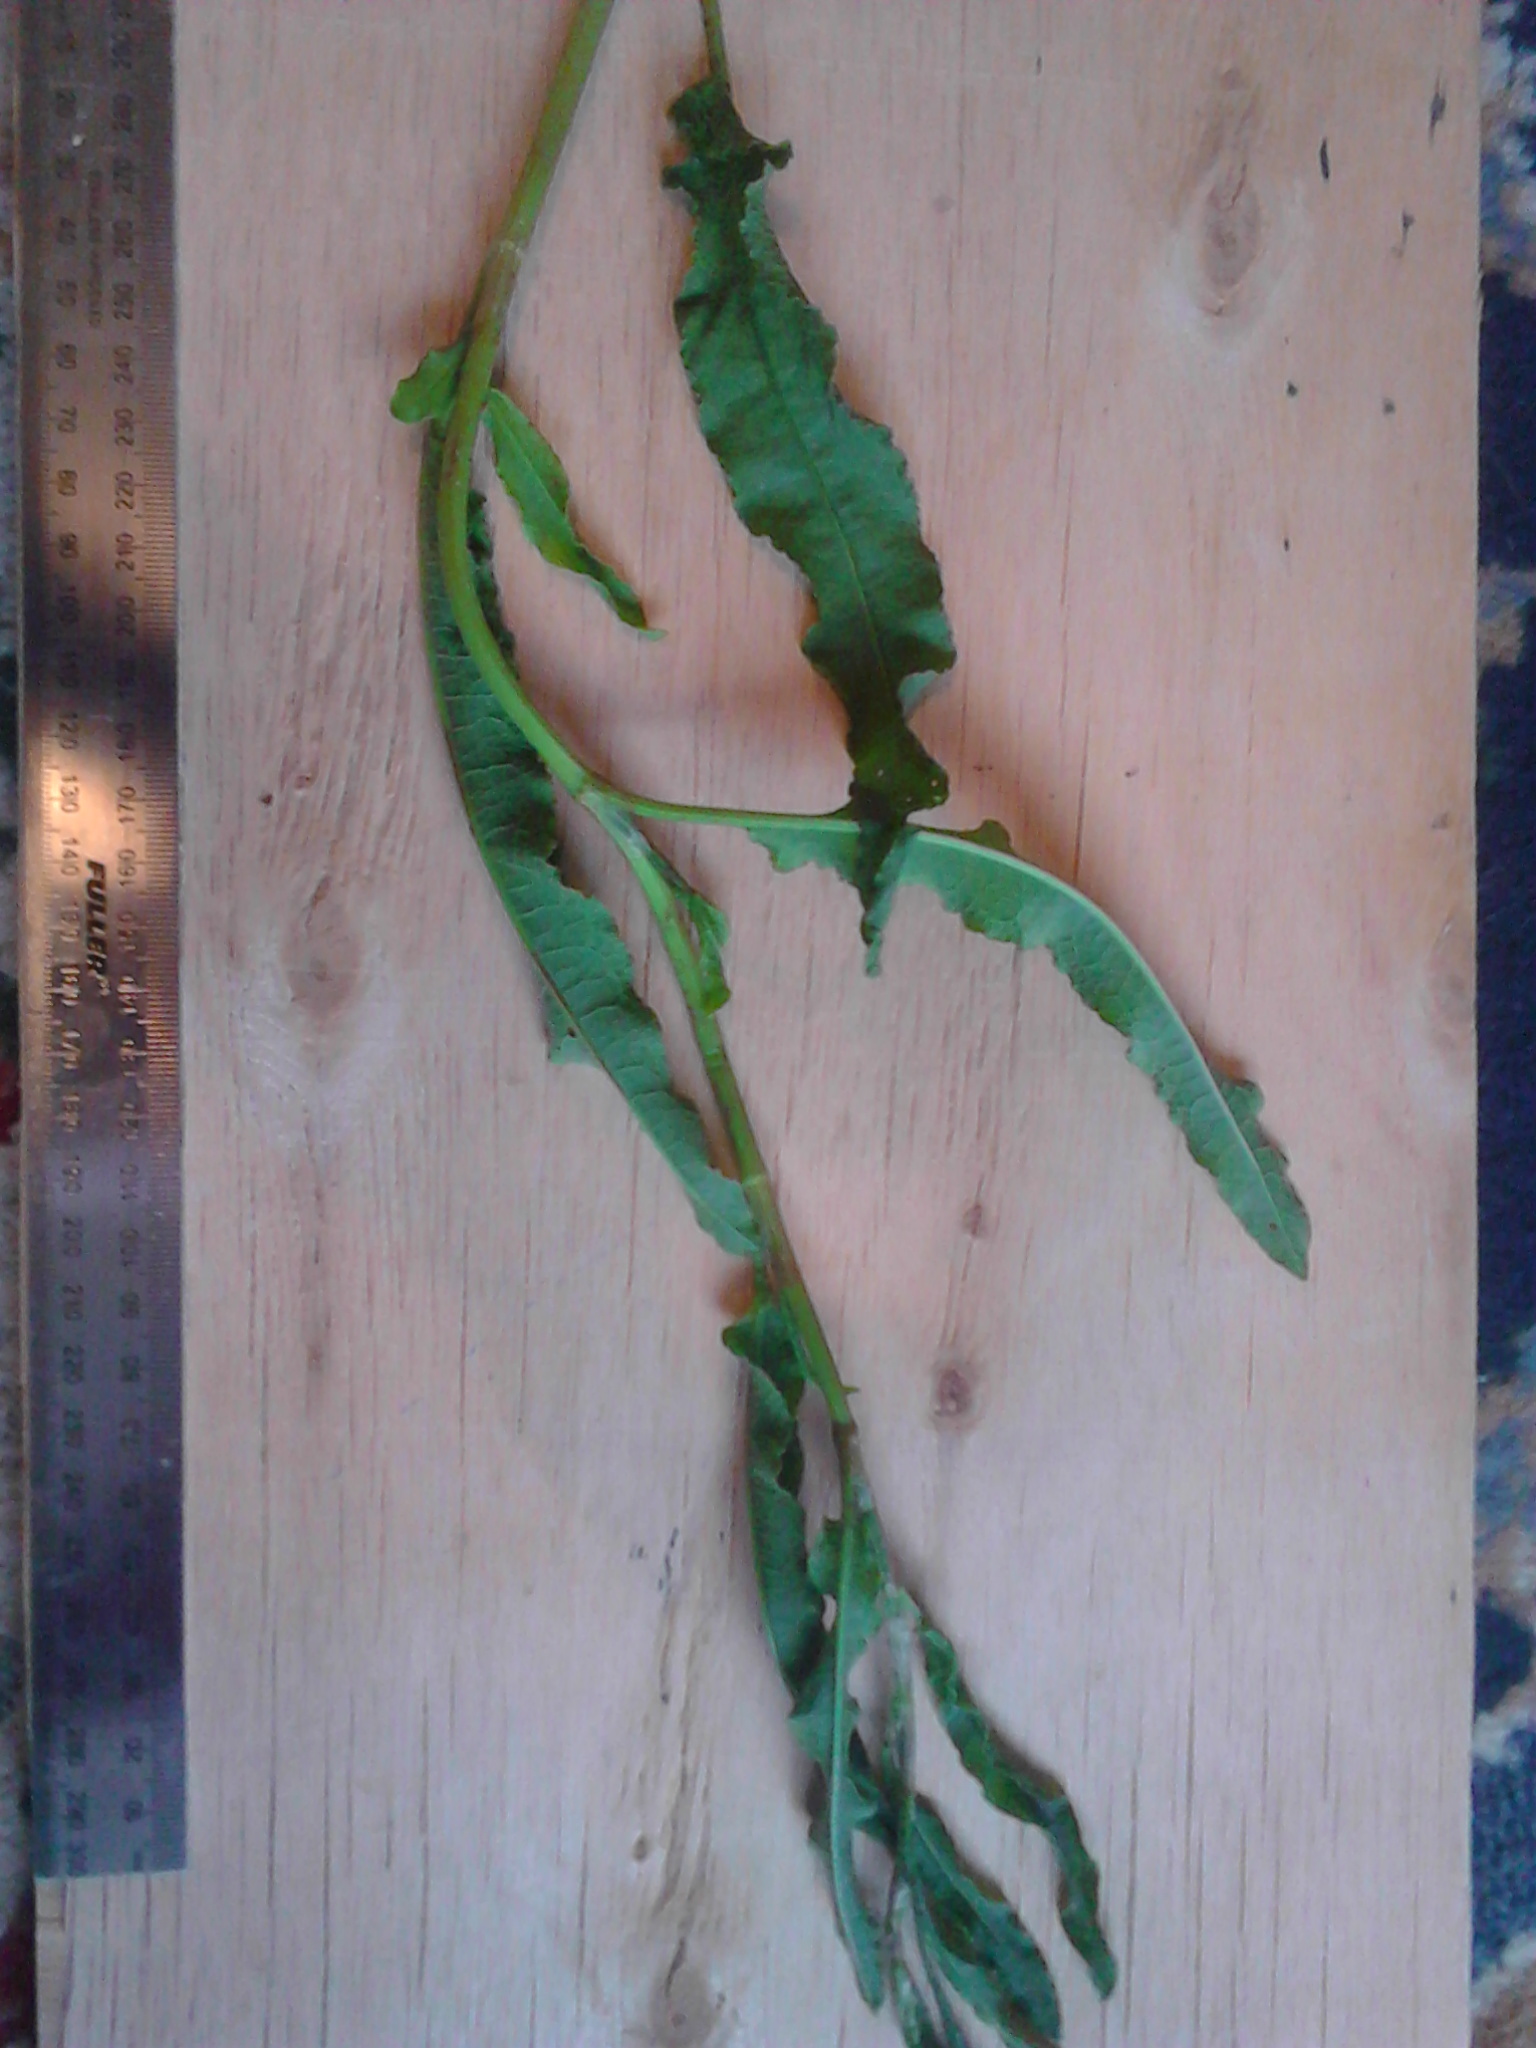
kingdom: Plantae
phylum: Tracheophyta
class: Magnoliopsida
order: Caryophyllales
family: Polygonaceae
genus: Rumex
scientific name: Rumex crispus
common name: Curled dock
